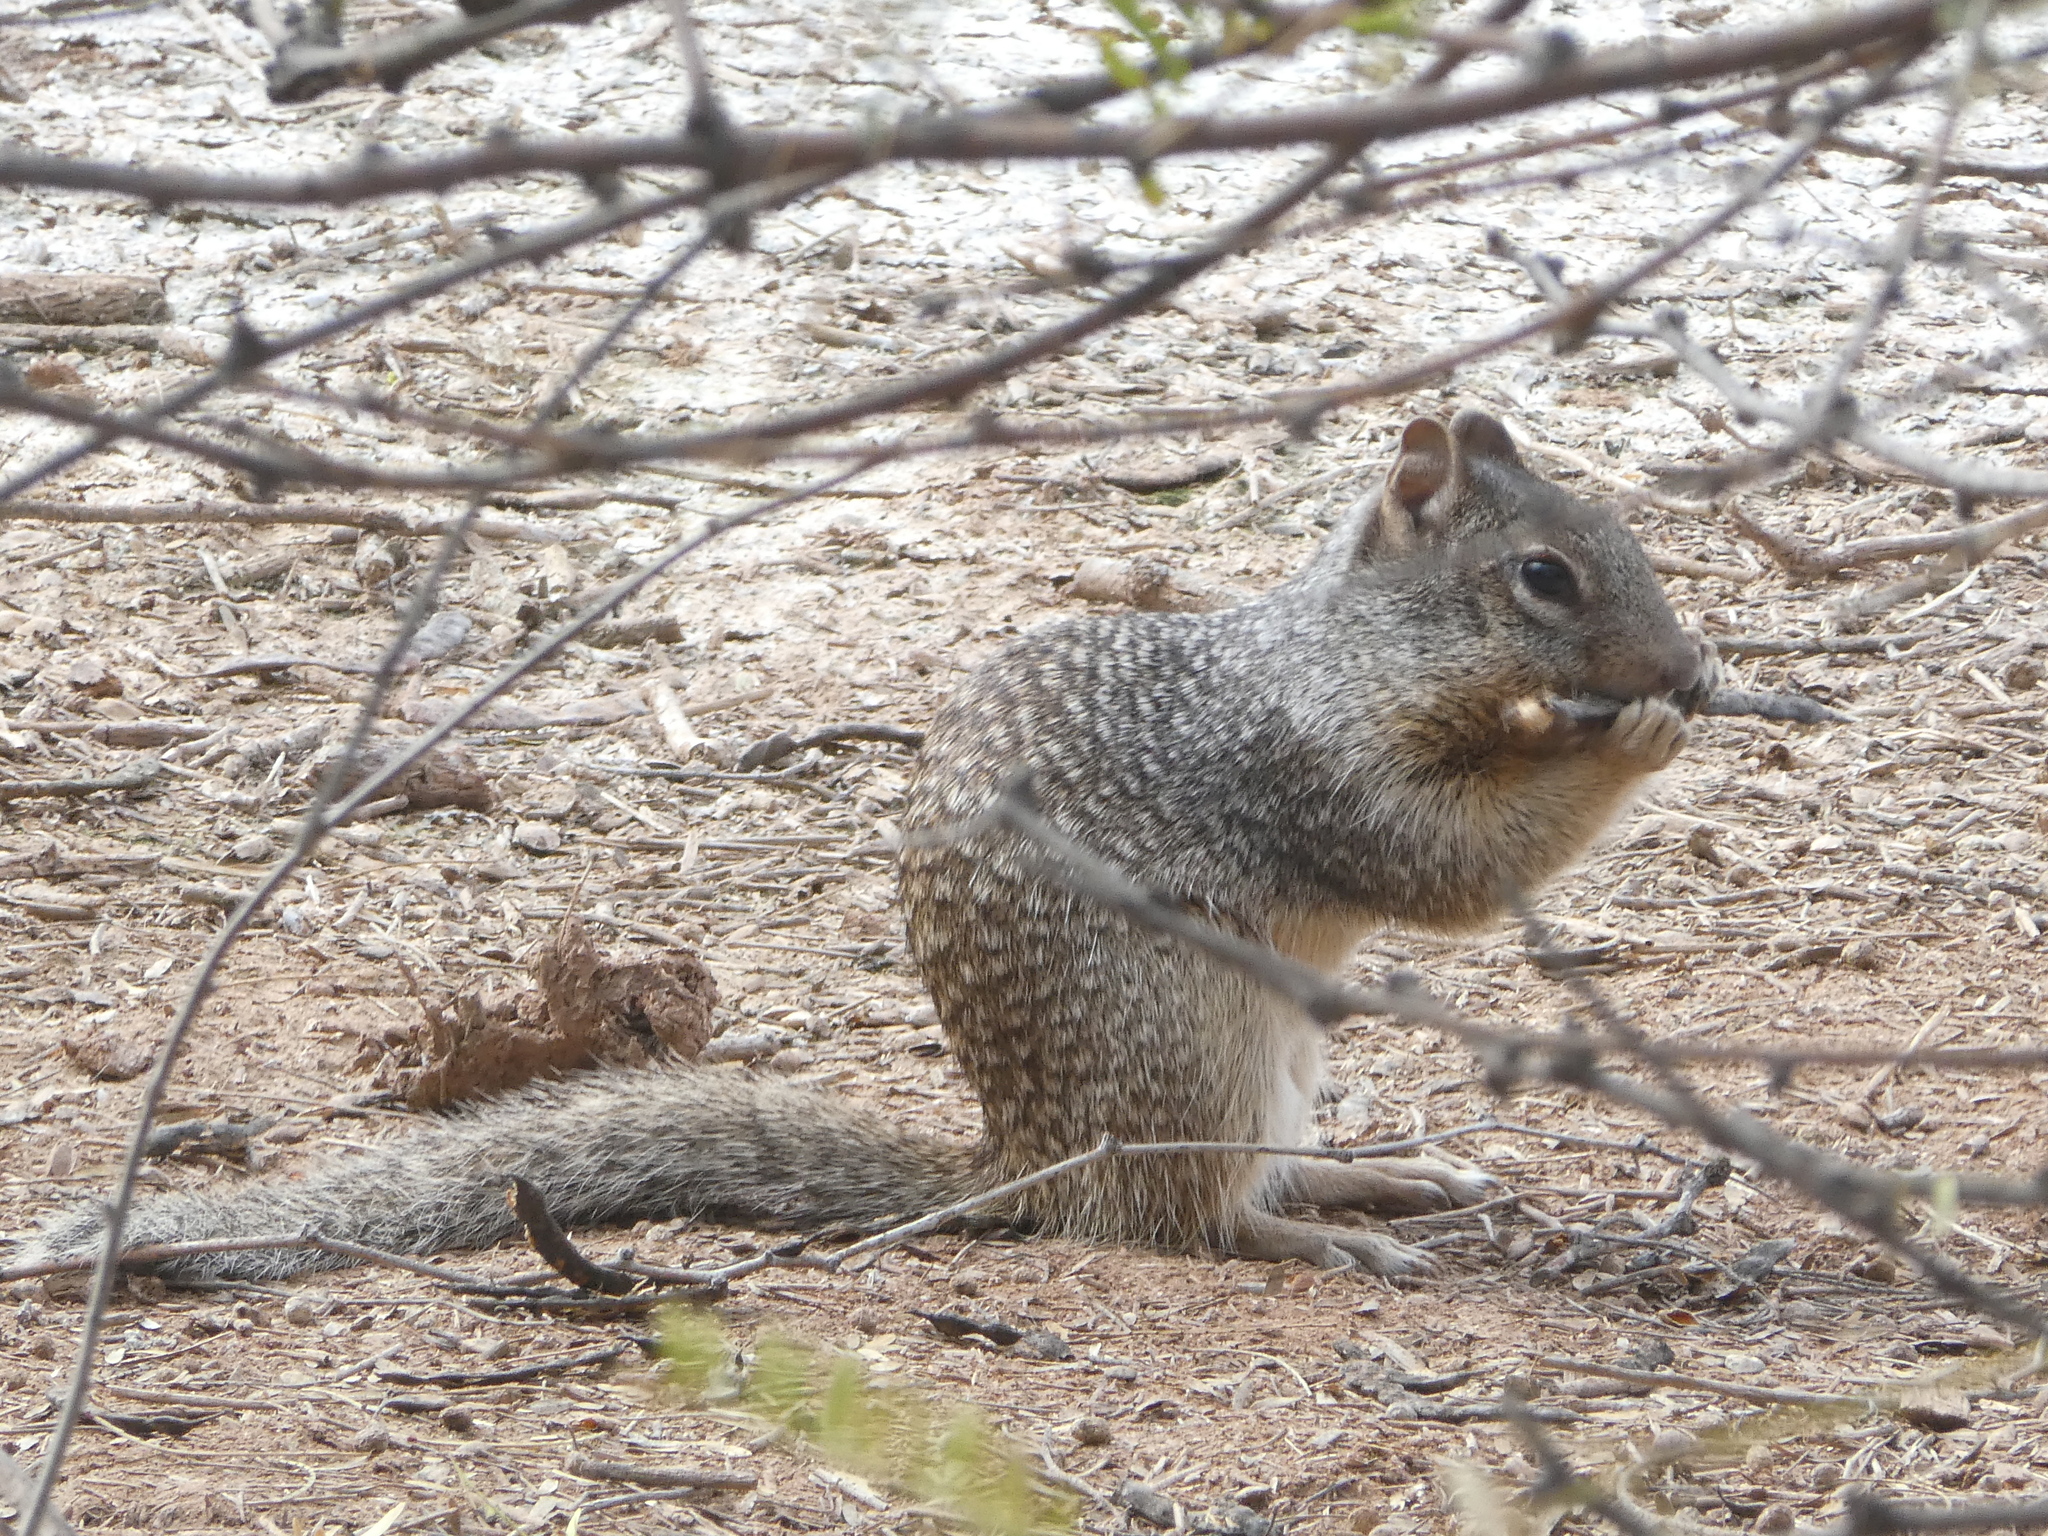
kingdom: Animalia
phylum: Chordata
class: Mammalia
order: Rodentia
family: Sciuridae
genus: Otospermophilus
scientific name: Otospermophilus variegatus
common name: Rock squirrel
